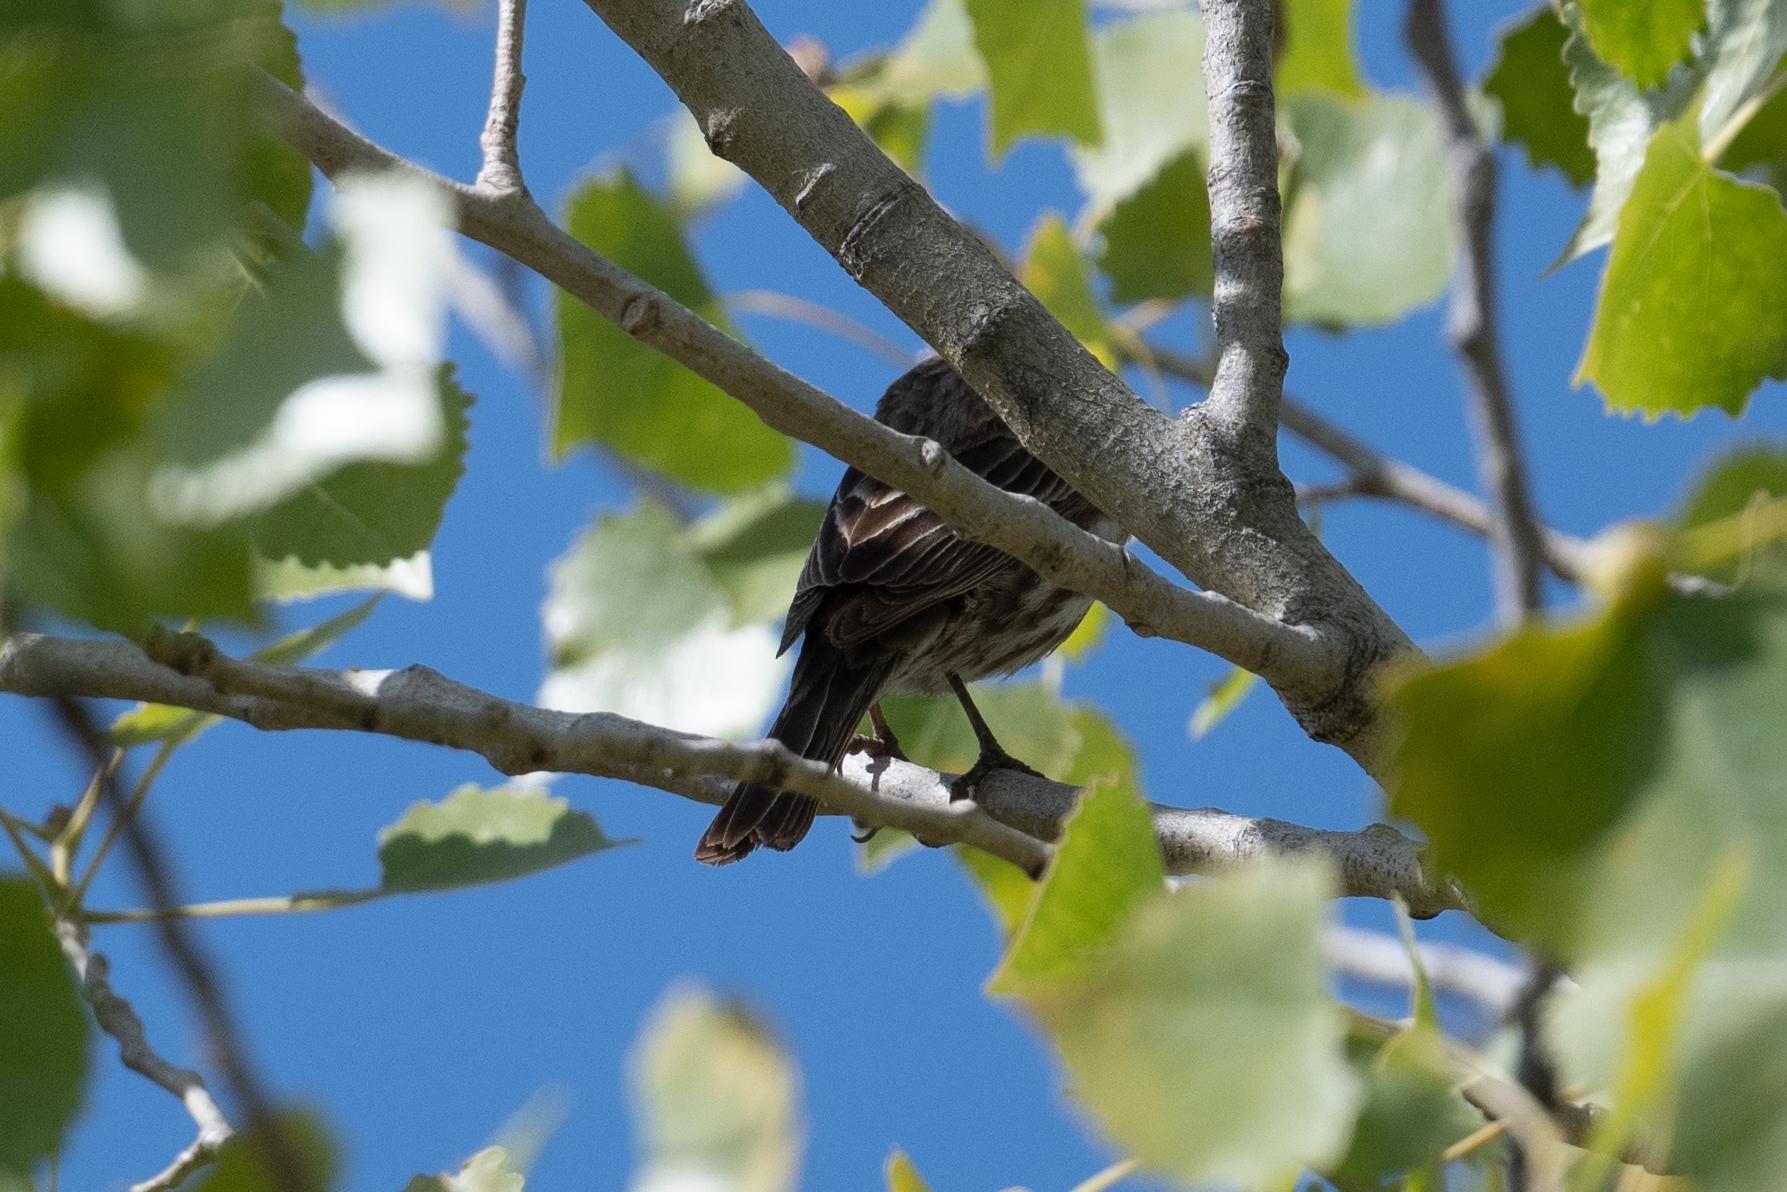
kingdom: Animalia
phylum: Chordata
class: Aves
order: Passeriformes
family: Fringillidae
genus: Haemorhous
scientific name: Haemorhous mexicanus
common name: House finch
